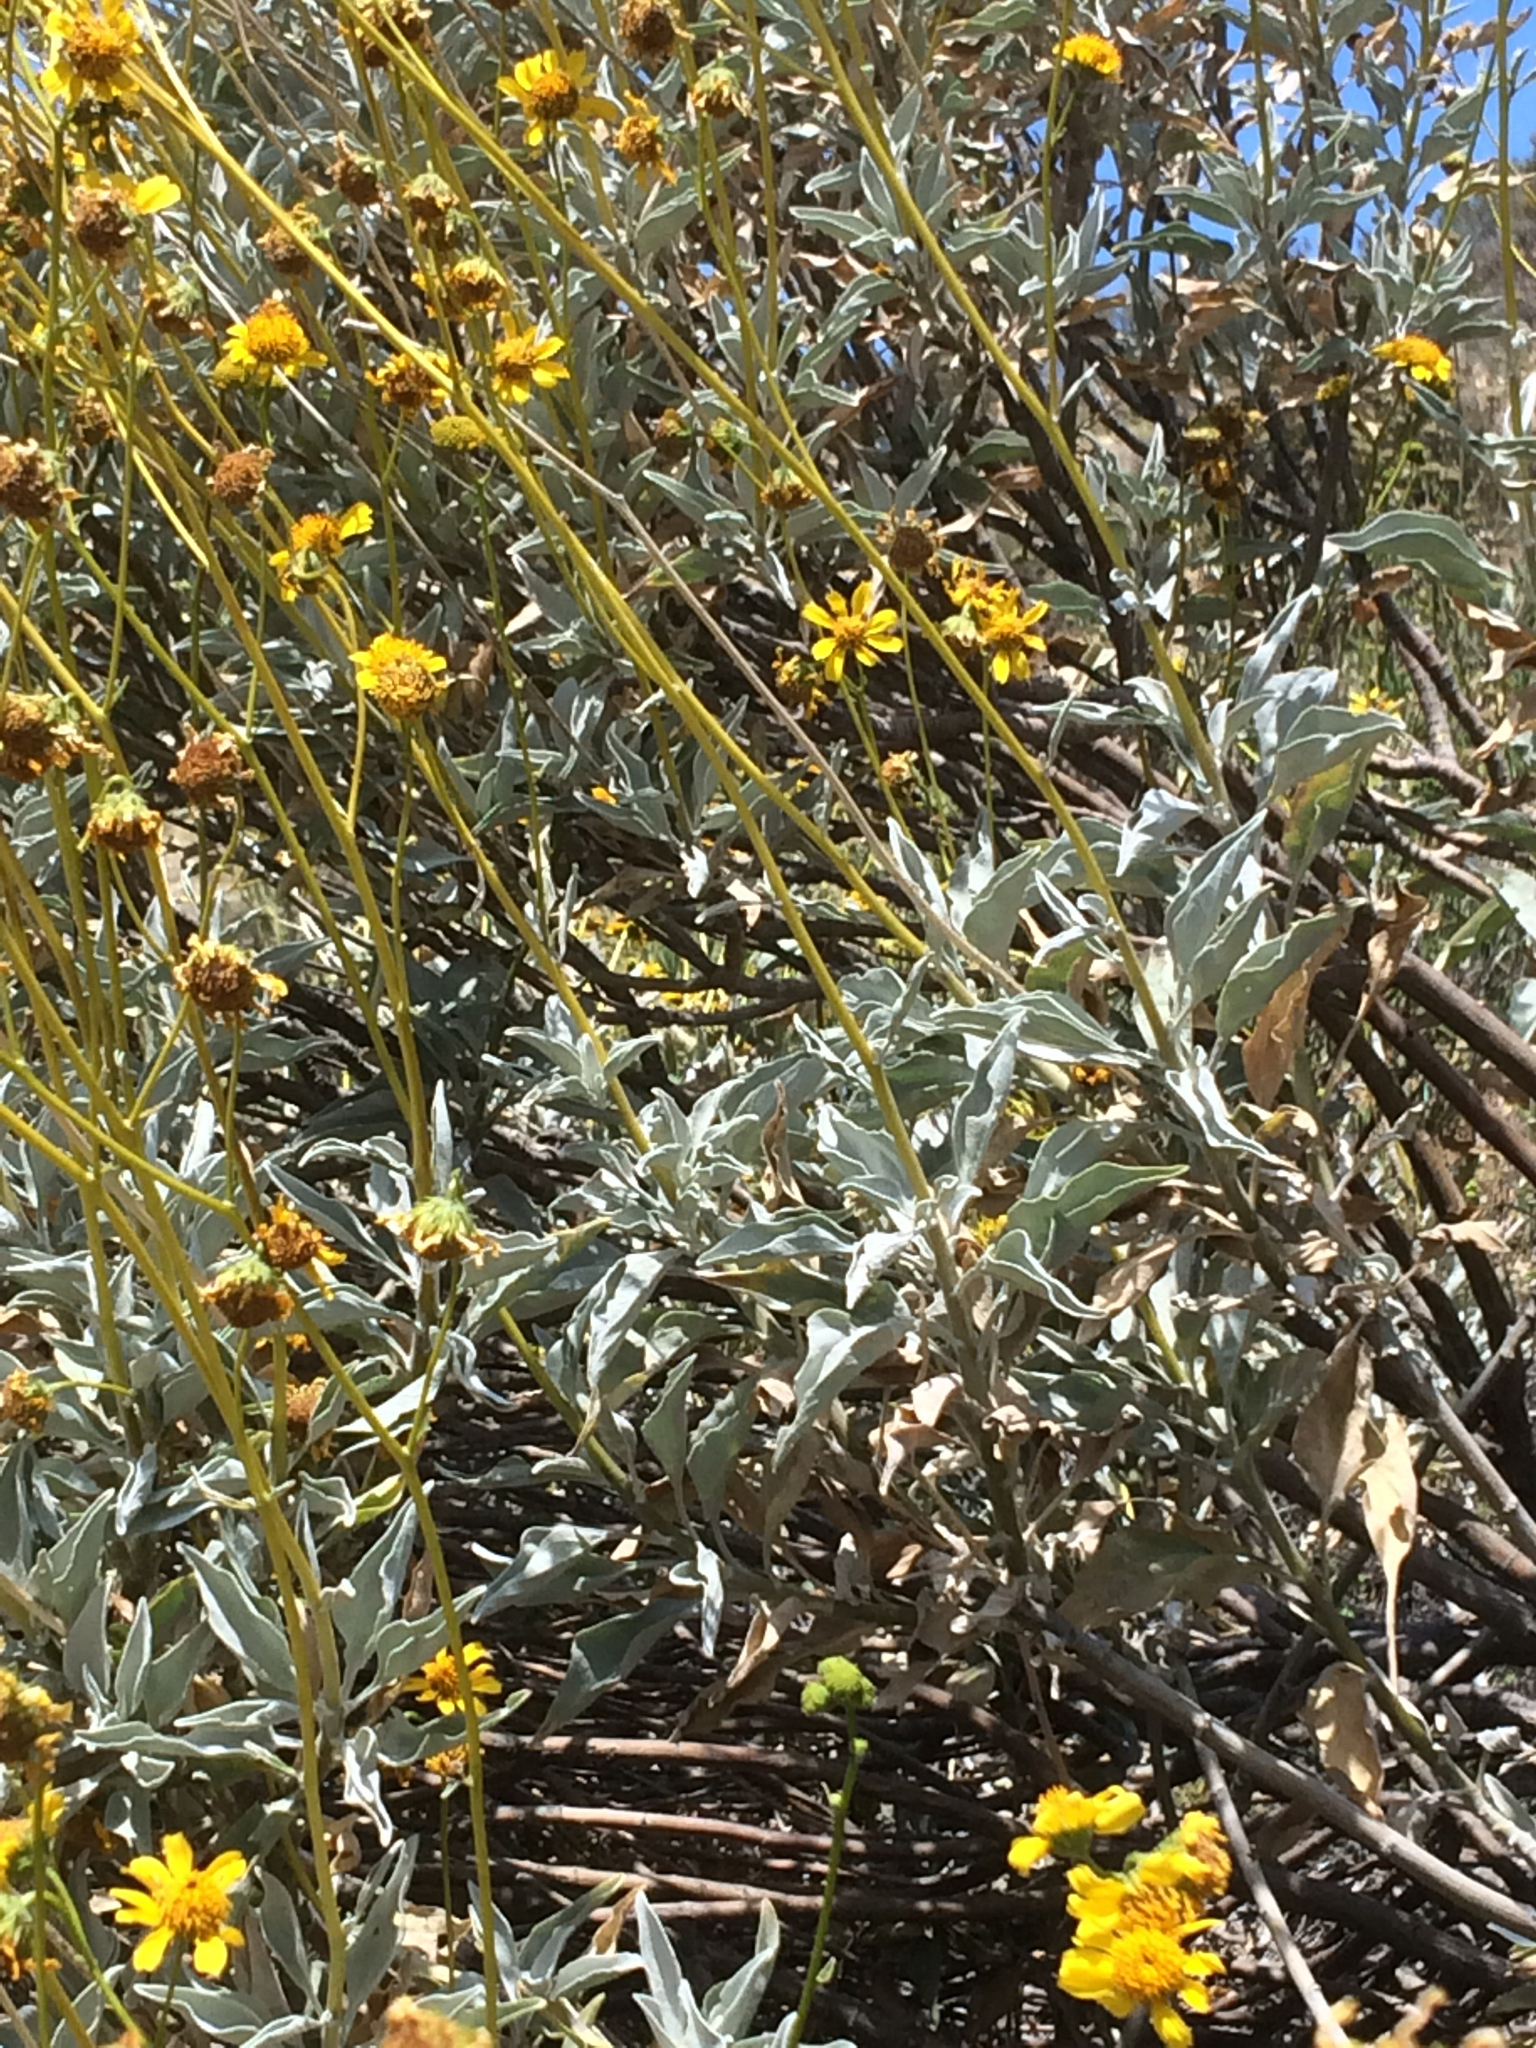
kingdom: Plantae
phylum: Tracheophyta
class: Magnoliopsida
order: Asterales
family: Asteraceae
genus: Encelia
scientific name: Encelia farinosa
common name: Brittlebush
